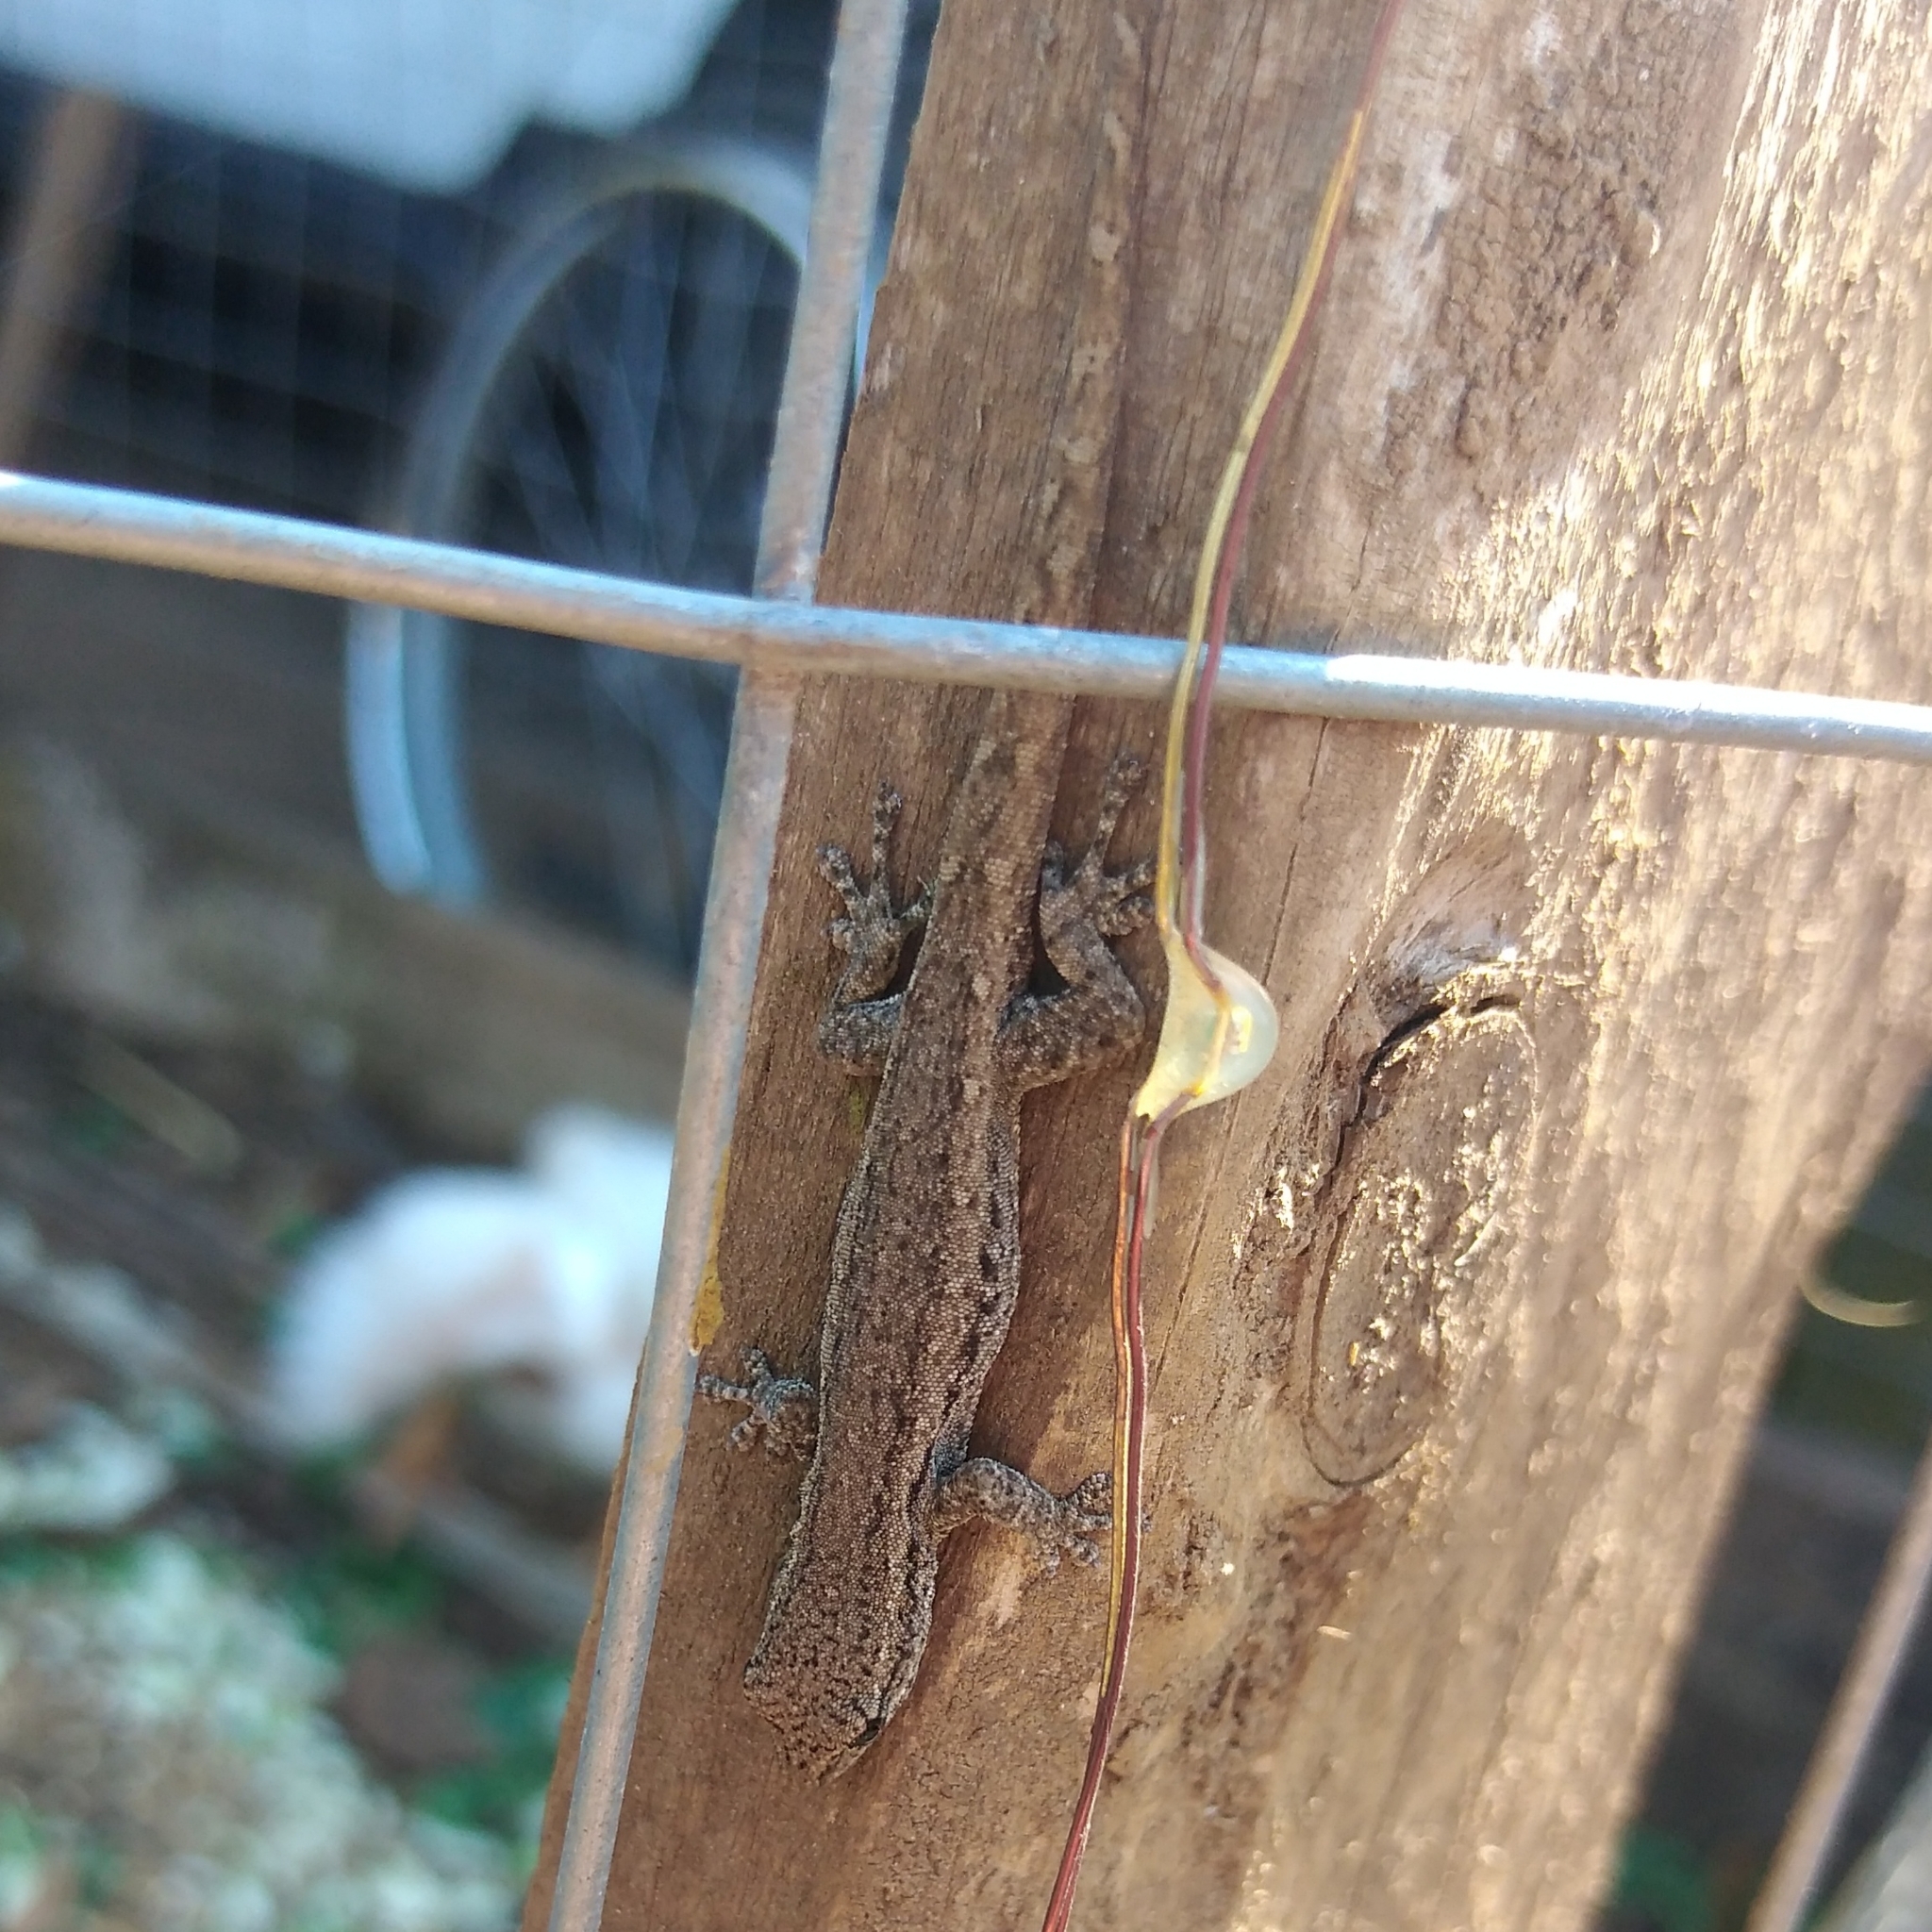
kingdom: Animalia
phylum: Chordata
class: Squamata
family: Gekkonidae
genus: Lygodactylus
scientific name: Lygodactylus capensis
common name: Cape dwarf gecko
